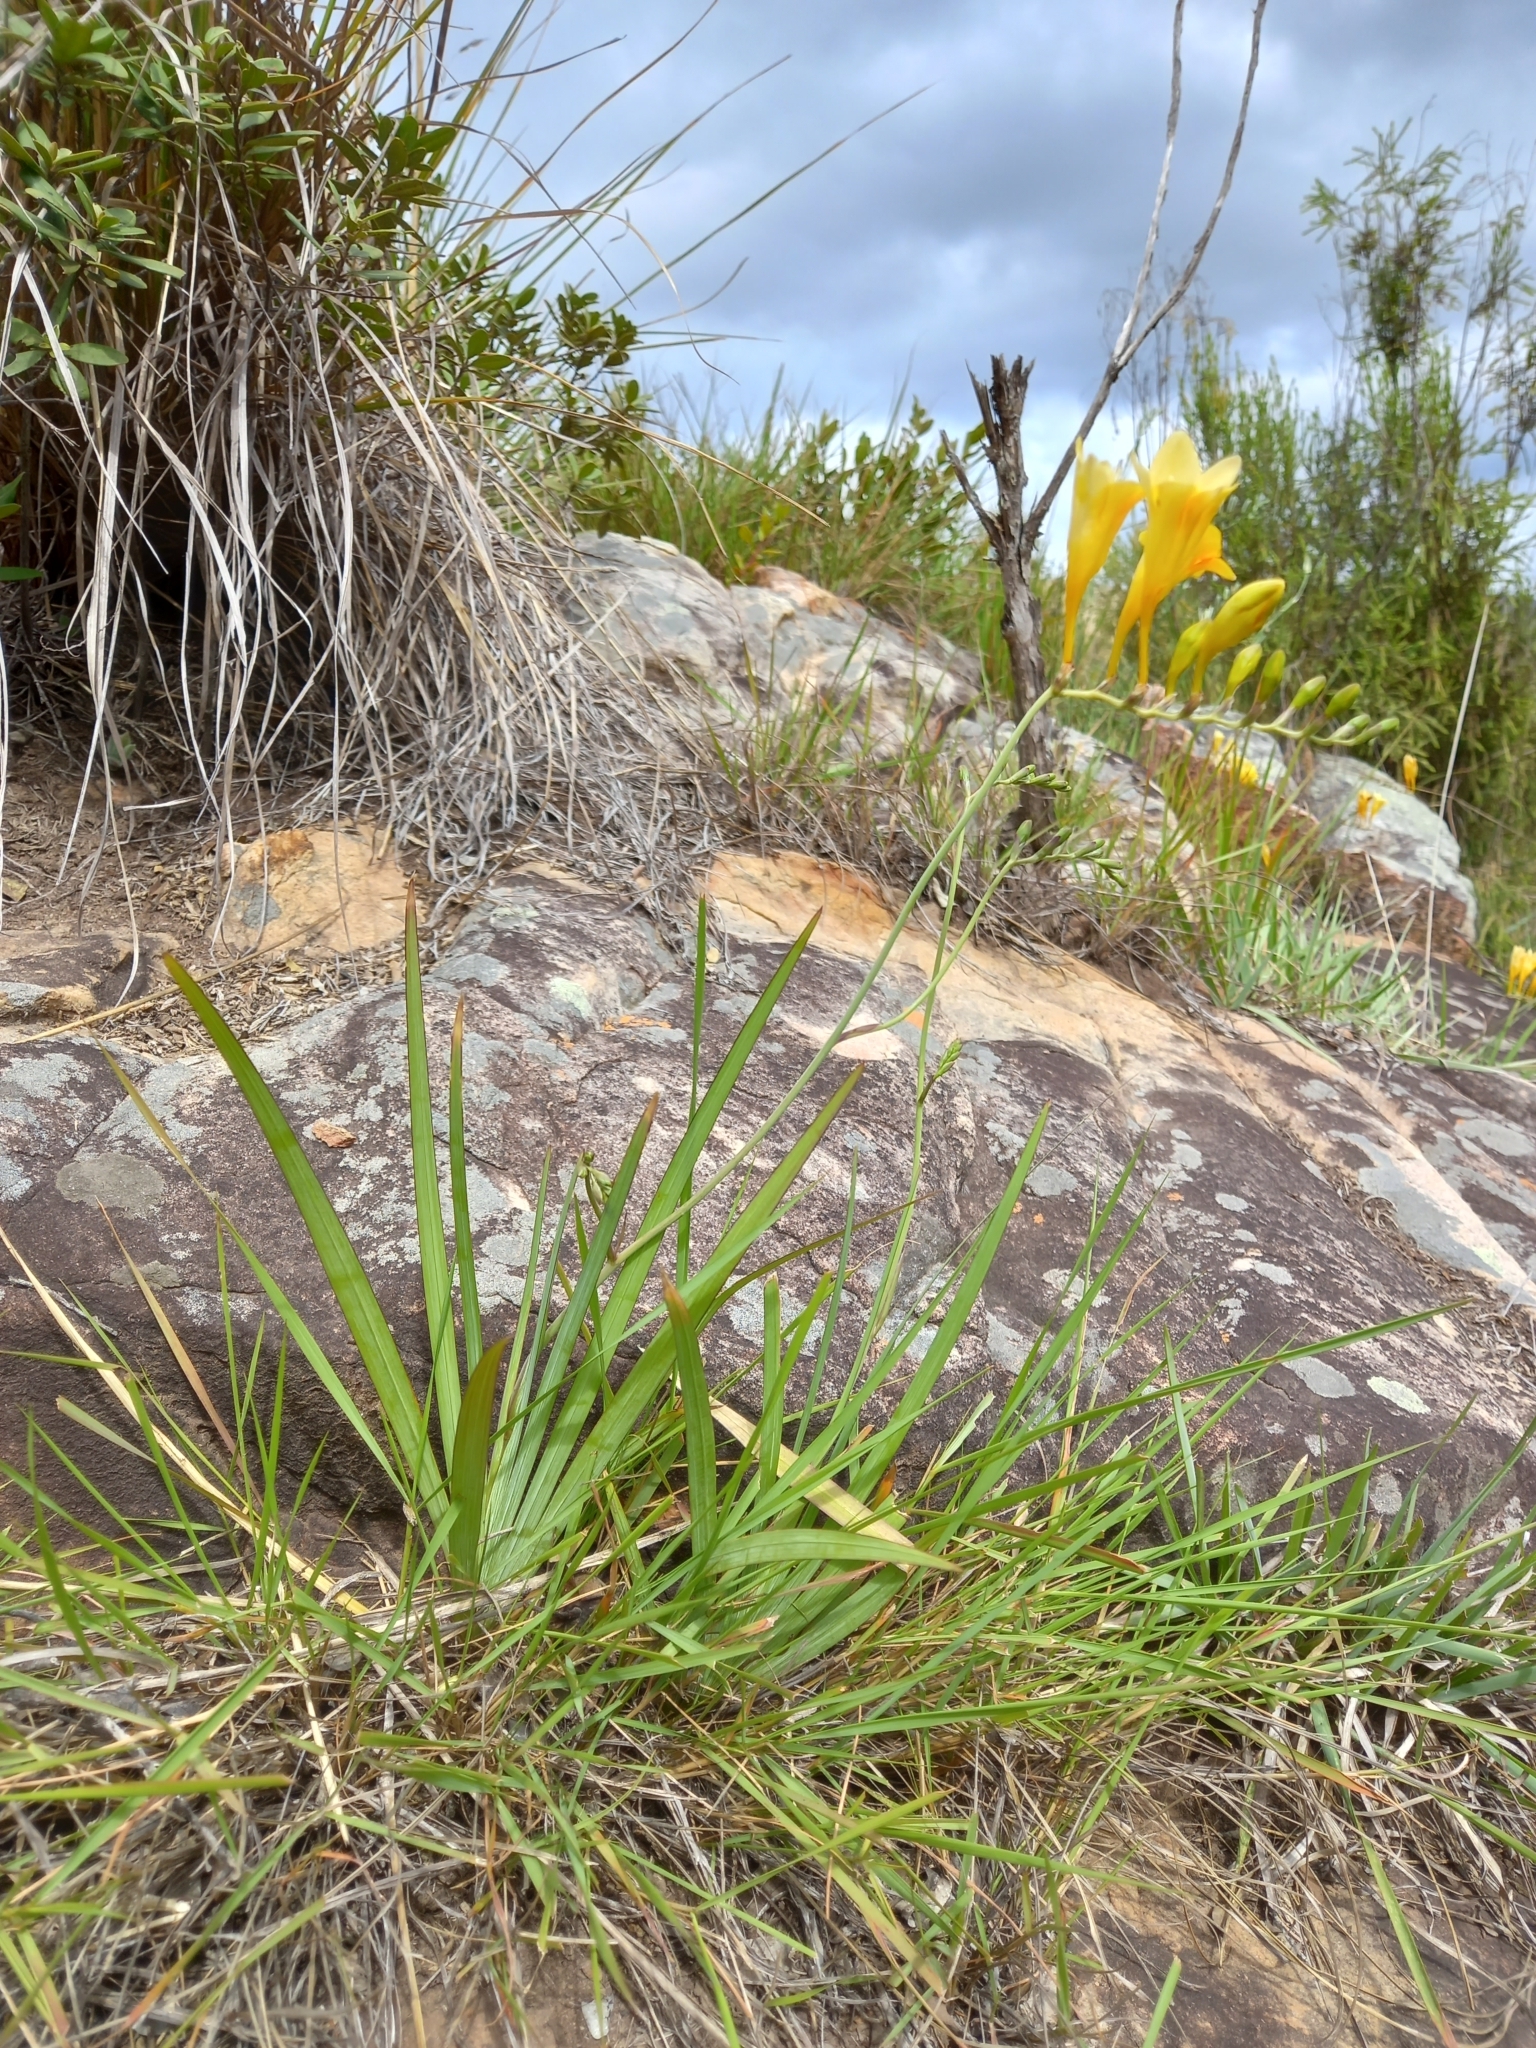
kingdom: Plantae
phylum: Tracheophyta
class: Liliopsida
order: Asparagales
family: Iridaceae
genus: Freesia
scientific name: Freesia corymbosa
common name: Common freesia
